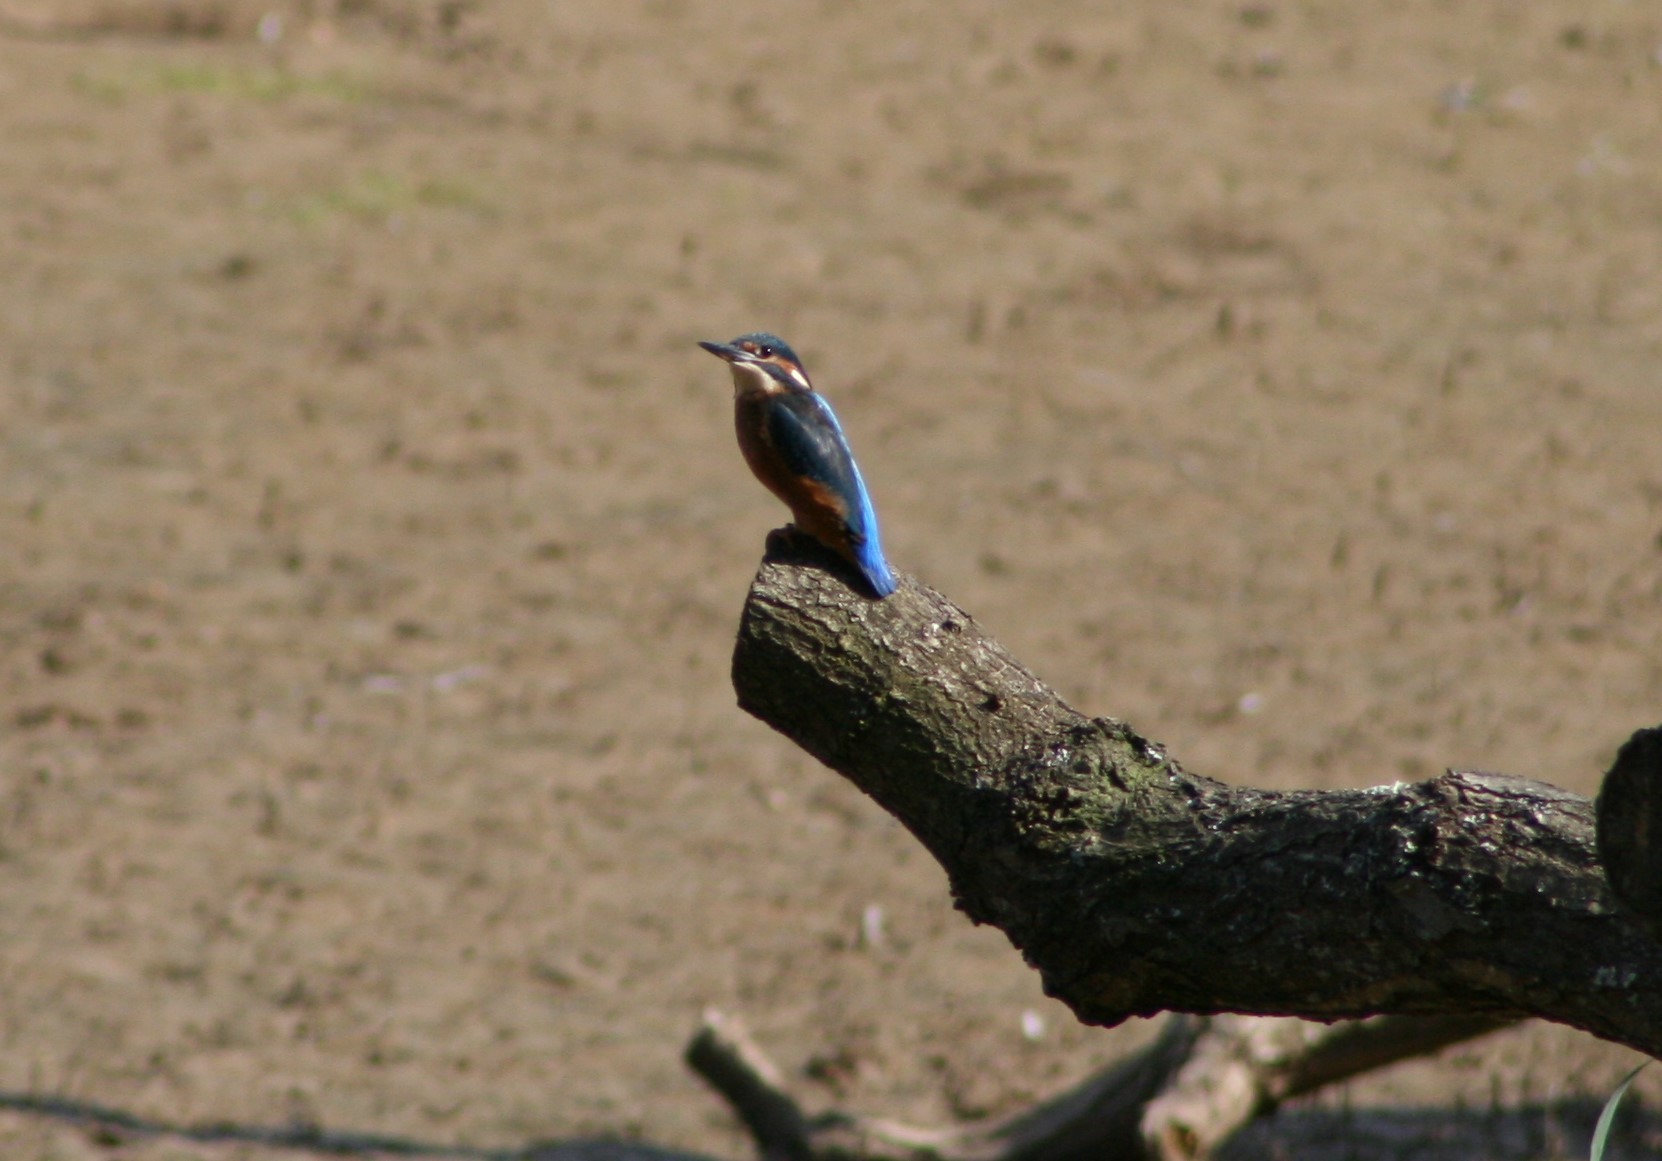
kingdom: Animalia
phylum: Chordata
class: Aves
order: Coraciiformes
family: Alcedinidae
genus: Alcedo
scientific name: Alcedo atthis
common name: Common kingfisher
